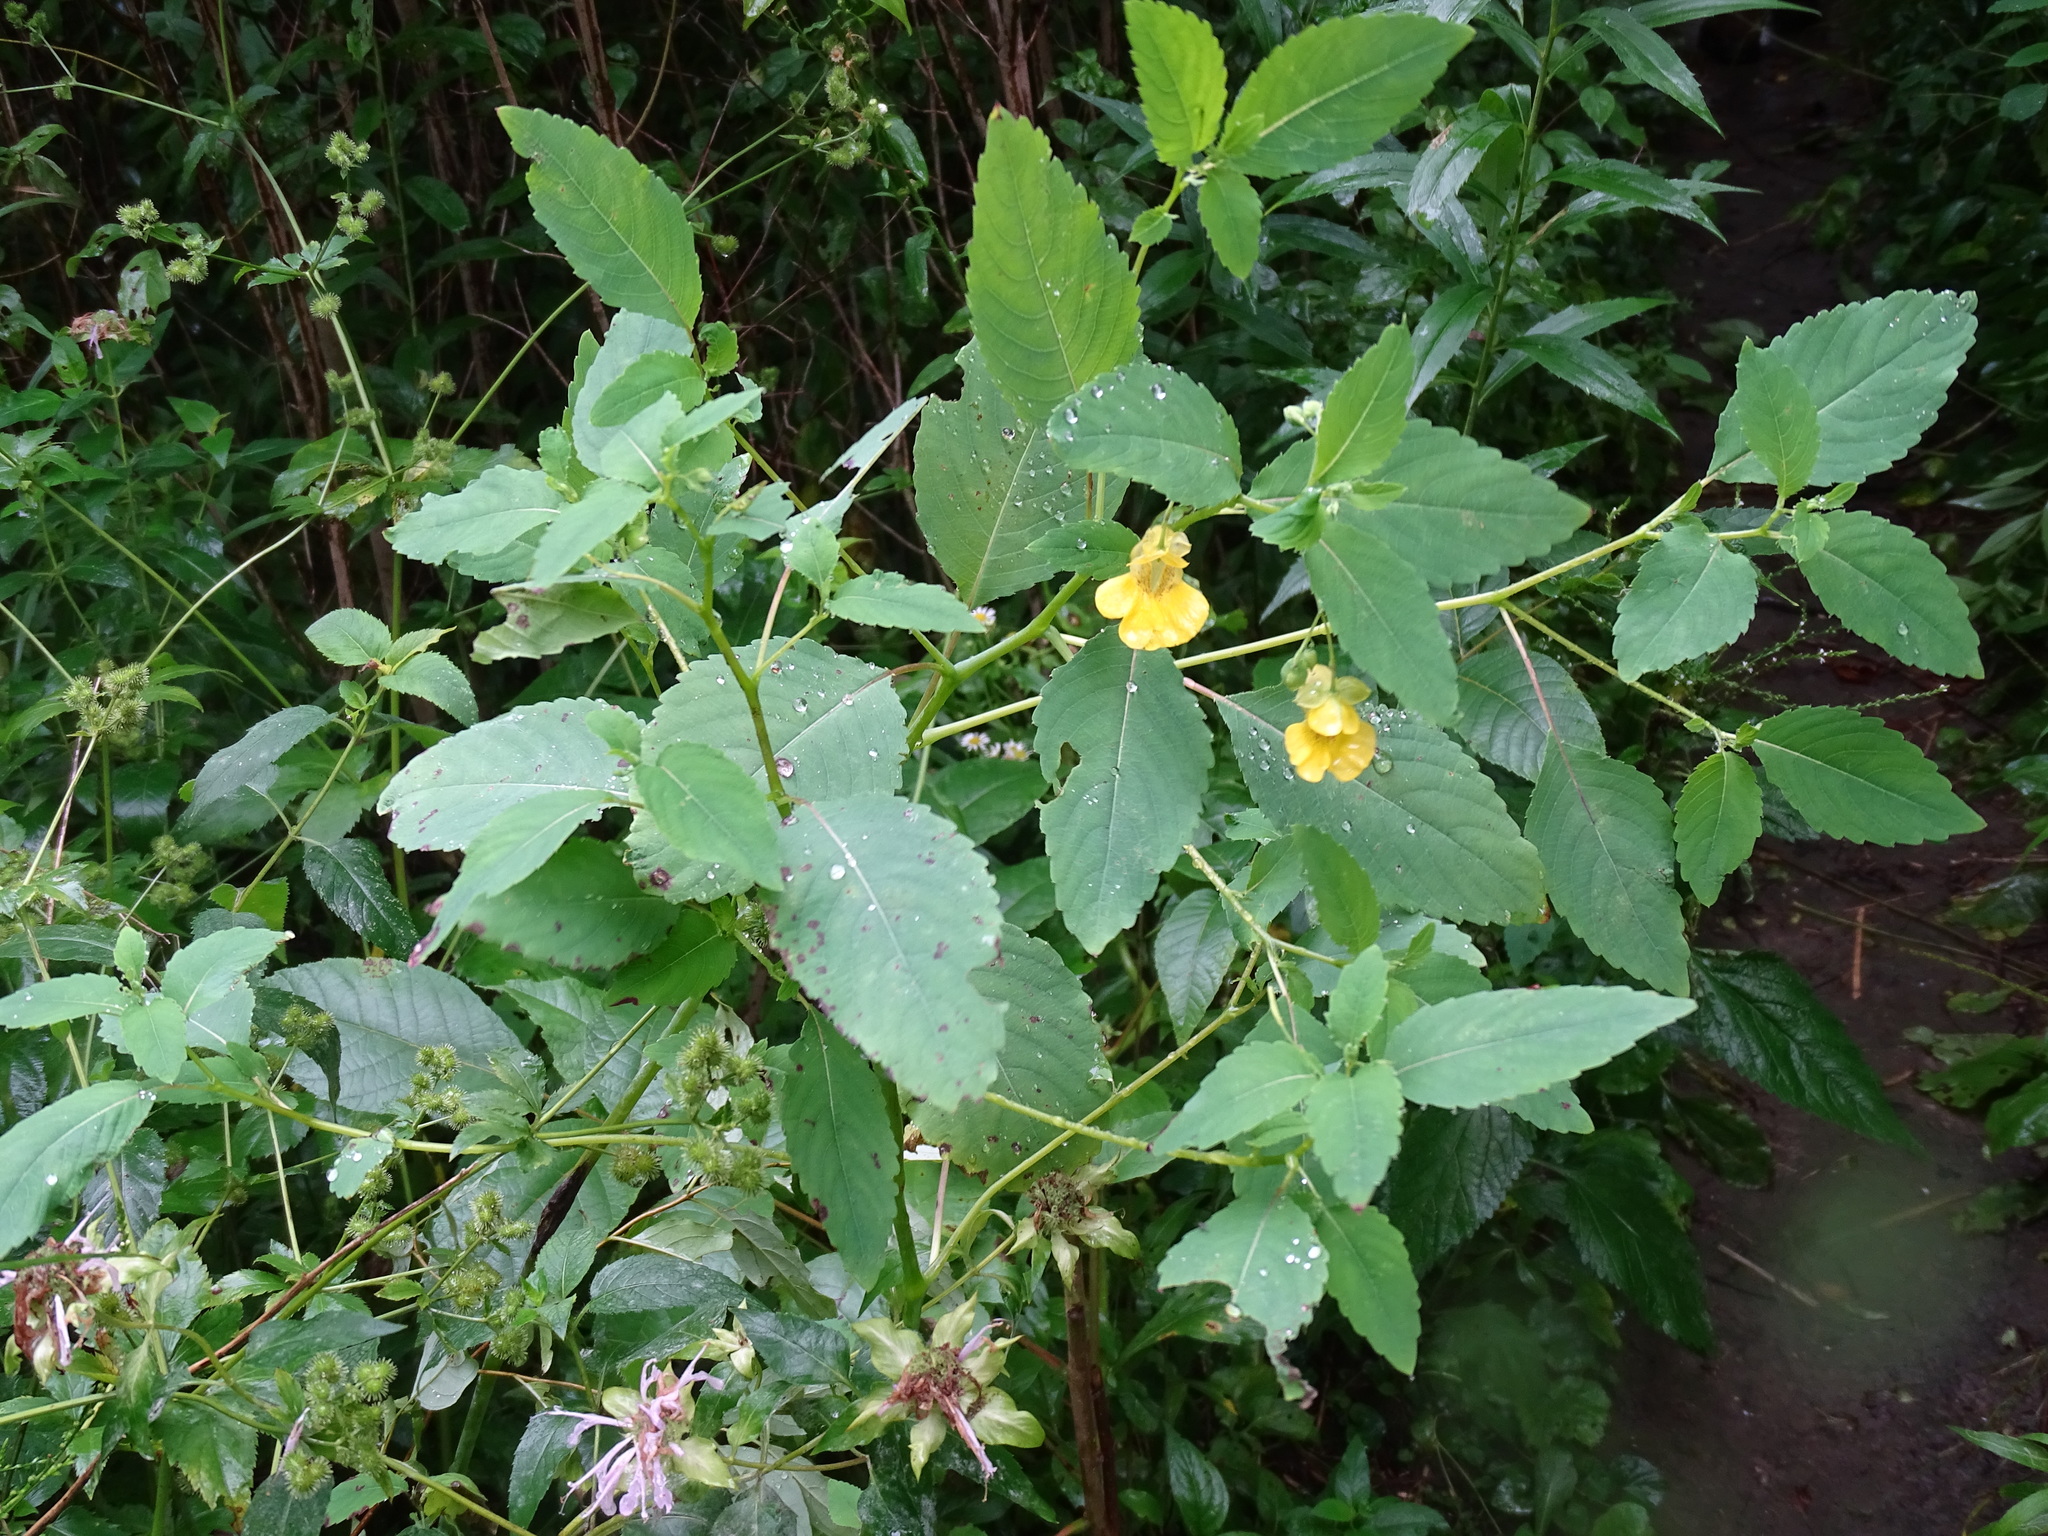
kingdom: Plantae
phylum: Tracheophyta
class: Magnoliopsida
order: Ericales
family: Balsaminaceae
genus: Impatiens
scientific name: Impatiens pallida
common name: Pale snapweed
